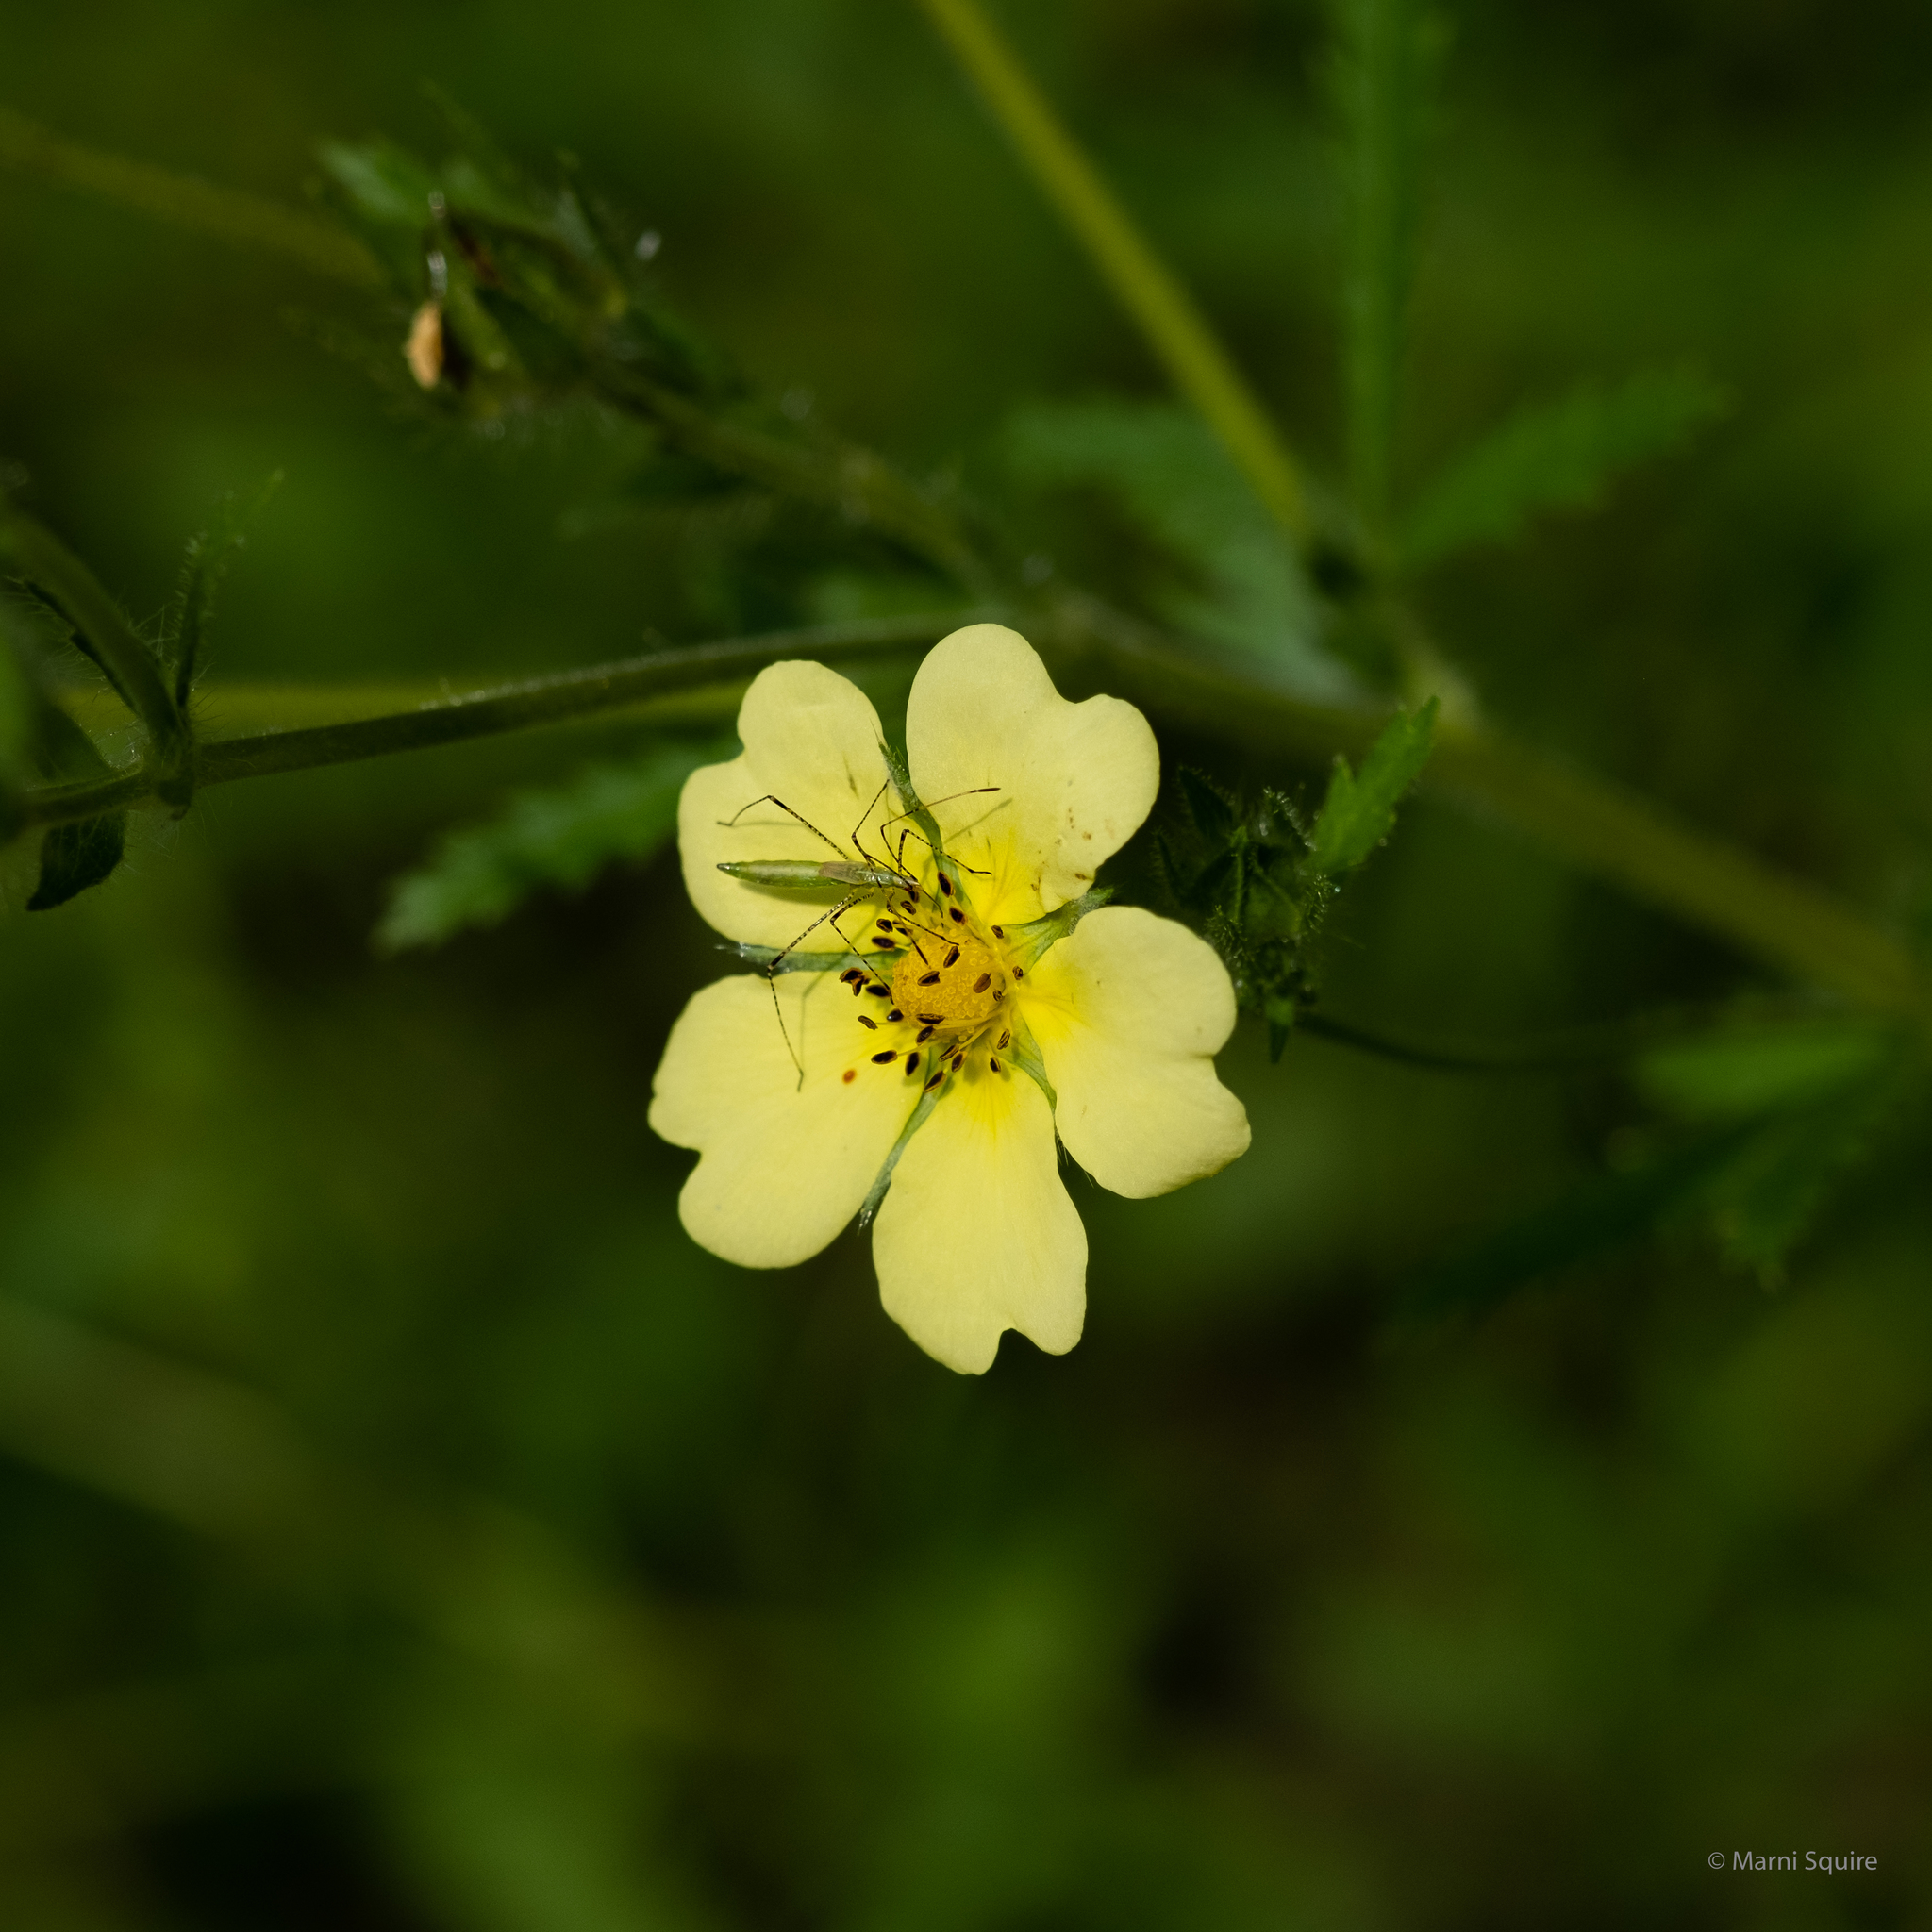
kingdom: Plantae
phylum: Tracheophyta
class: Magnoliopsida
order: Rosales
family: Rosaceae
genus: Potentilla
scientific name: Potentilla recta
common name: Sulphur cinquefoil
